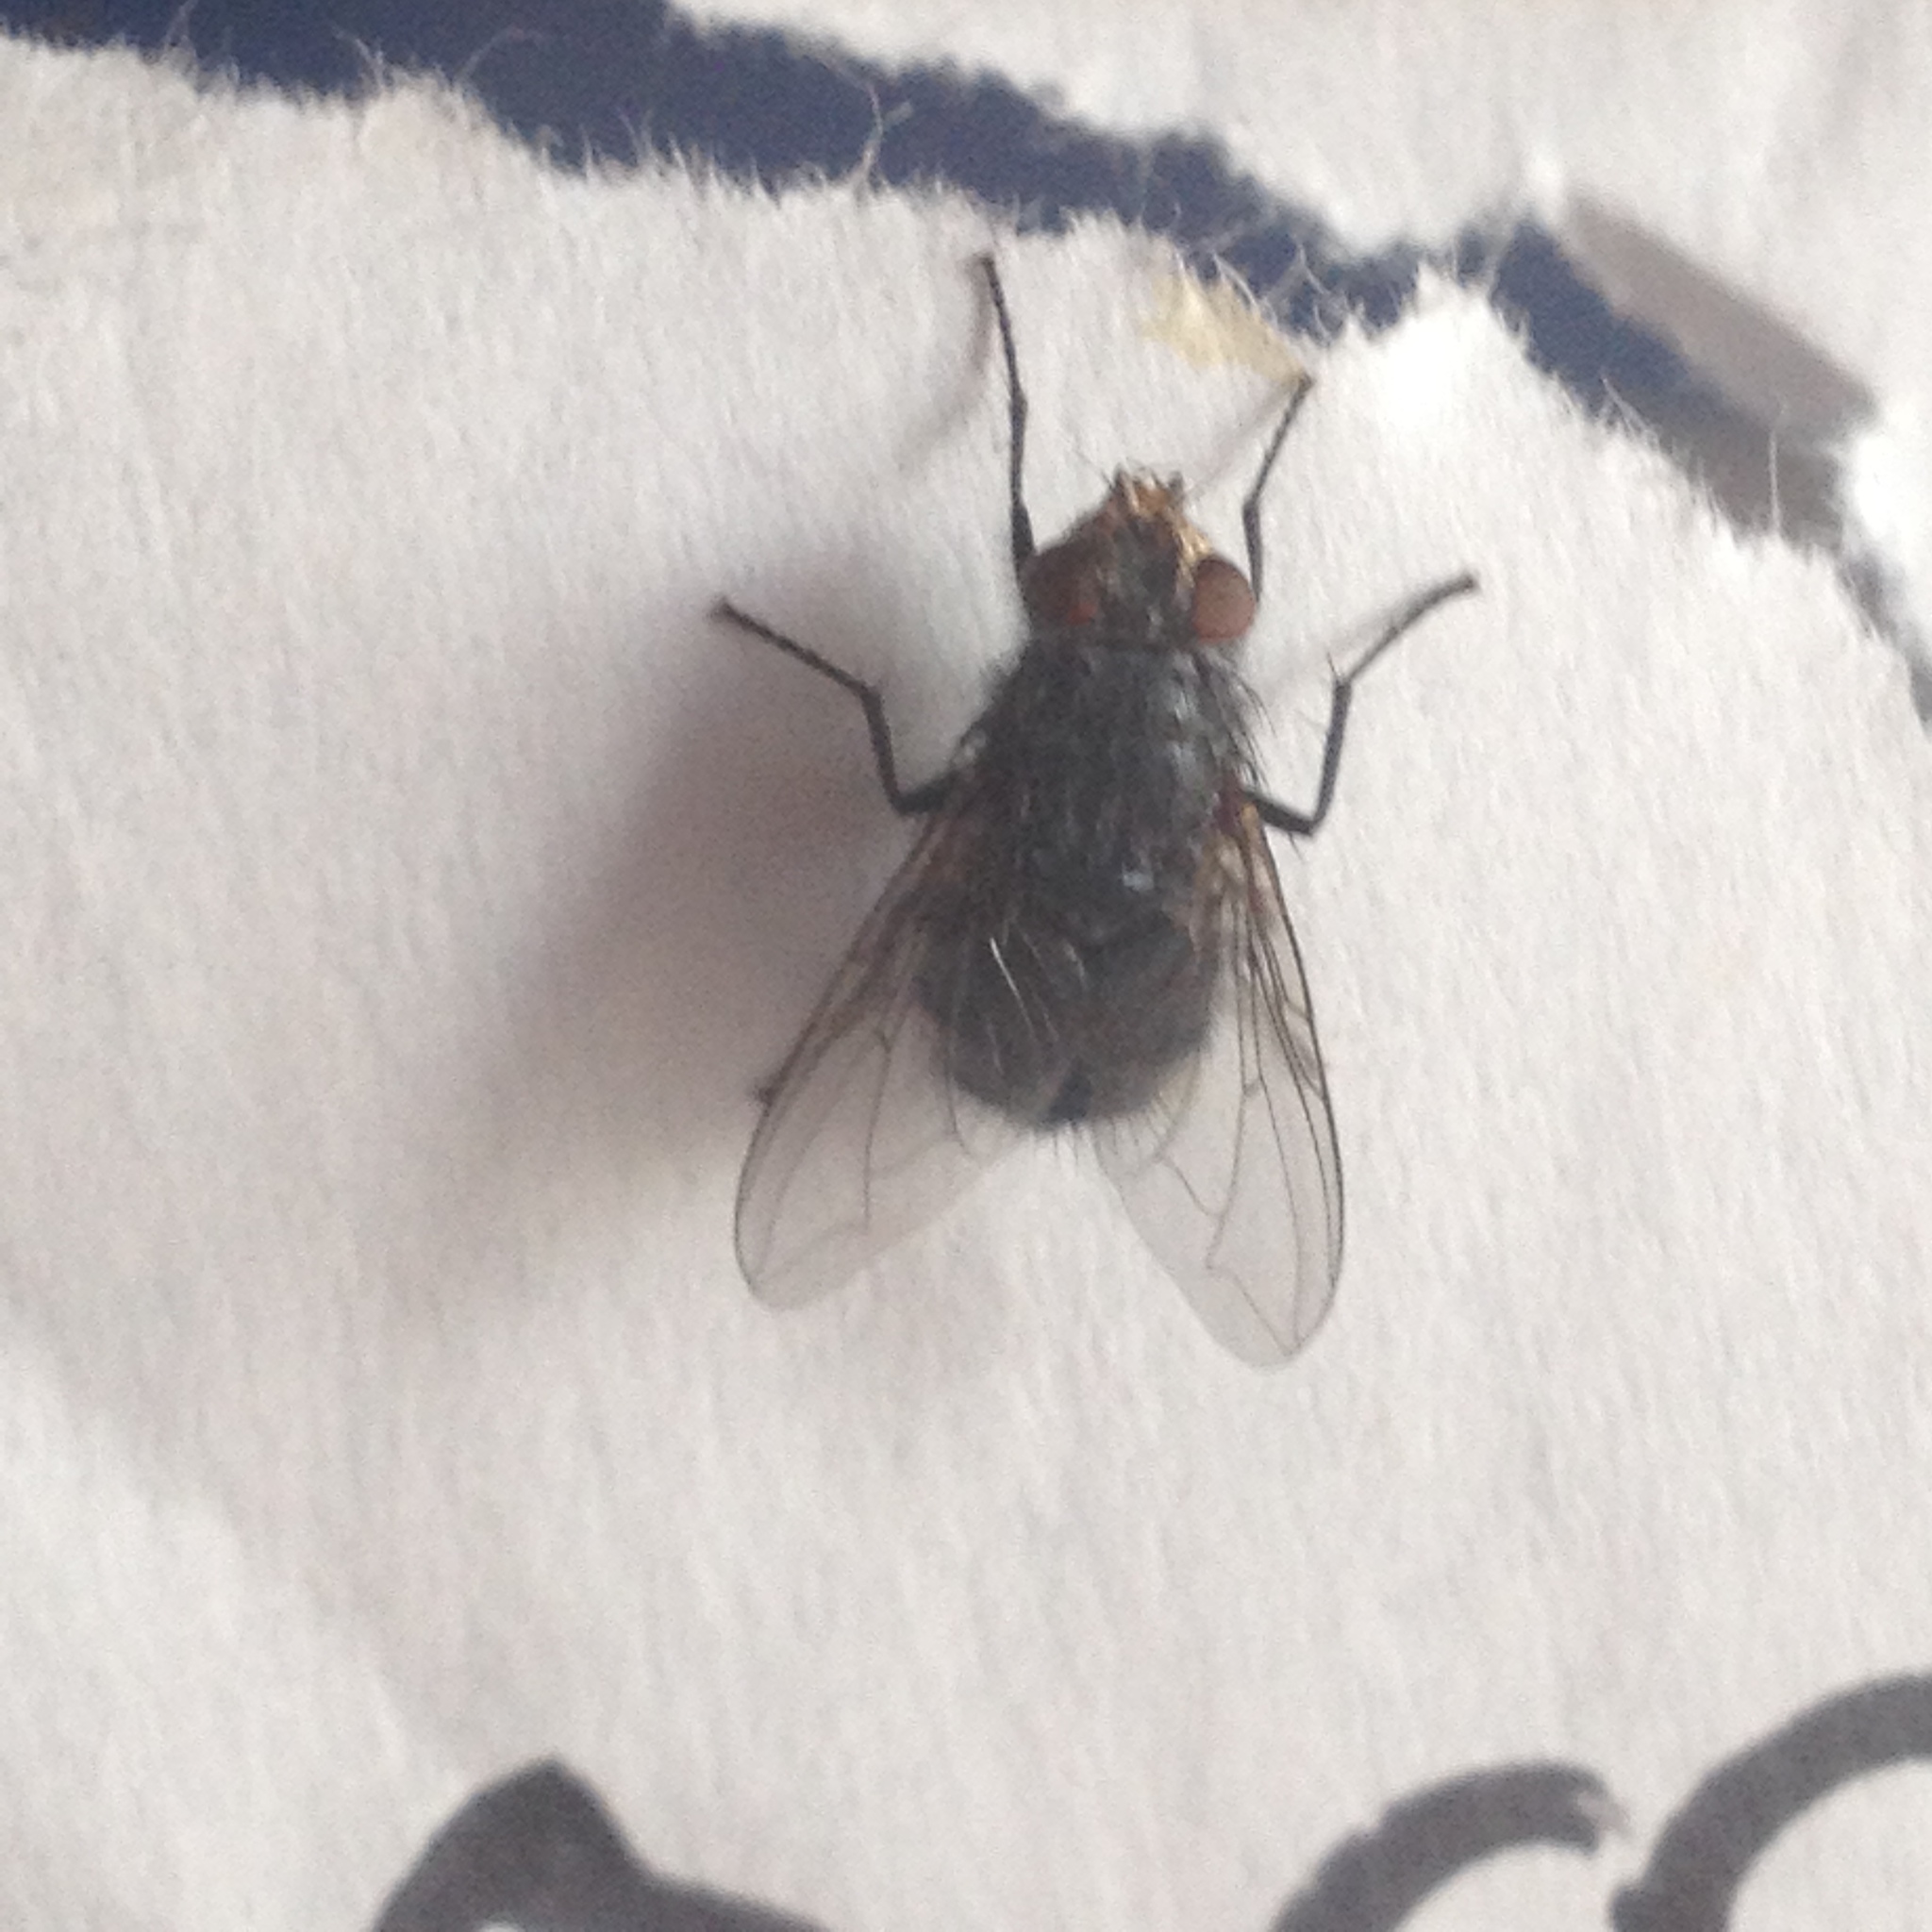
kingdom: Animalia
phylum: Arthropoda
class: Insecta
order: Diptera
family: Calliphoridae
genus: Calliphora
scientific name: Calliphora vicina
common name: Common blow flie
